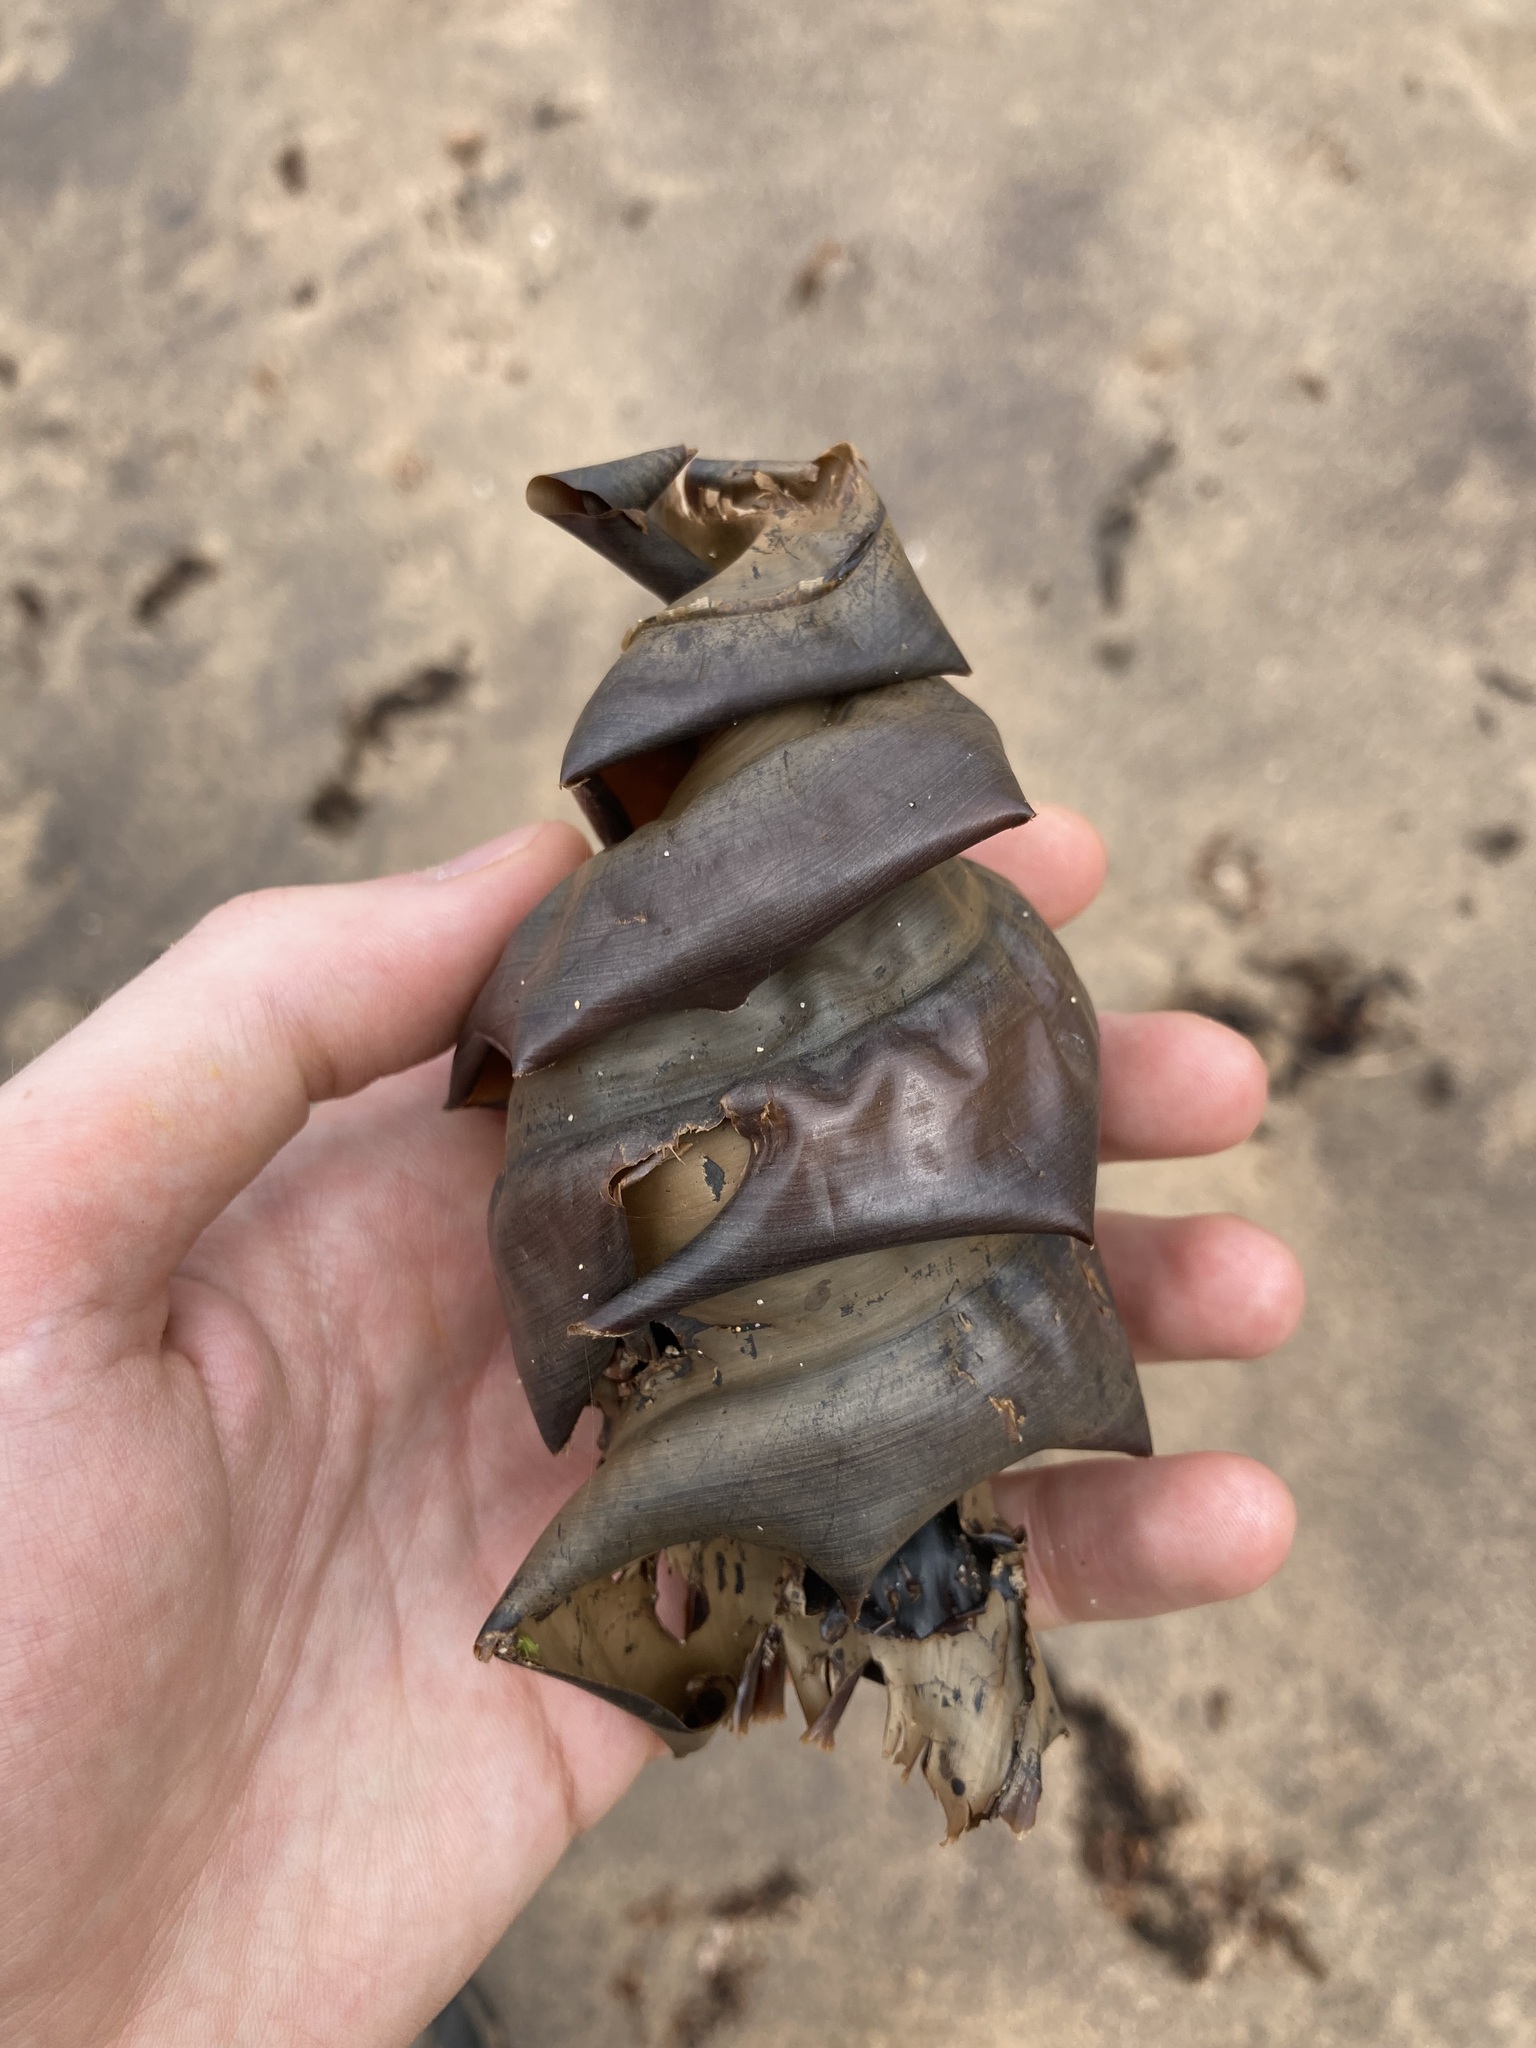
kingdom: Animalia
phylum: Chordata
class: Elasmobranchii
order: Heterodontiformes
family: Heterodontidae
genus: Heterodontus
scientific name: Heterodontus portusjacksoni
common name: Port jackson shark
